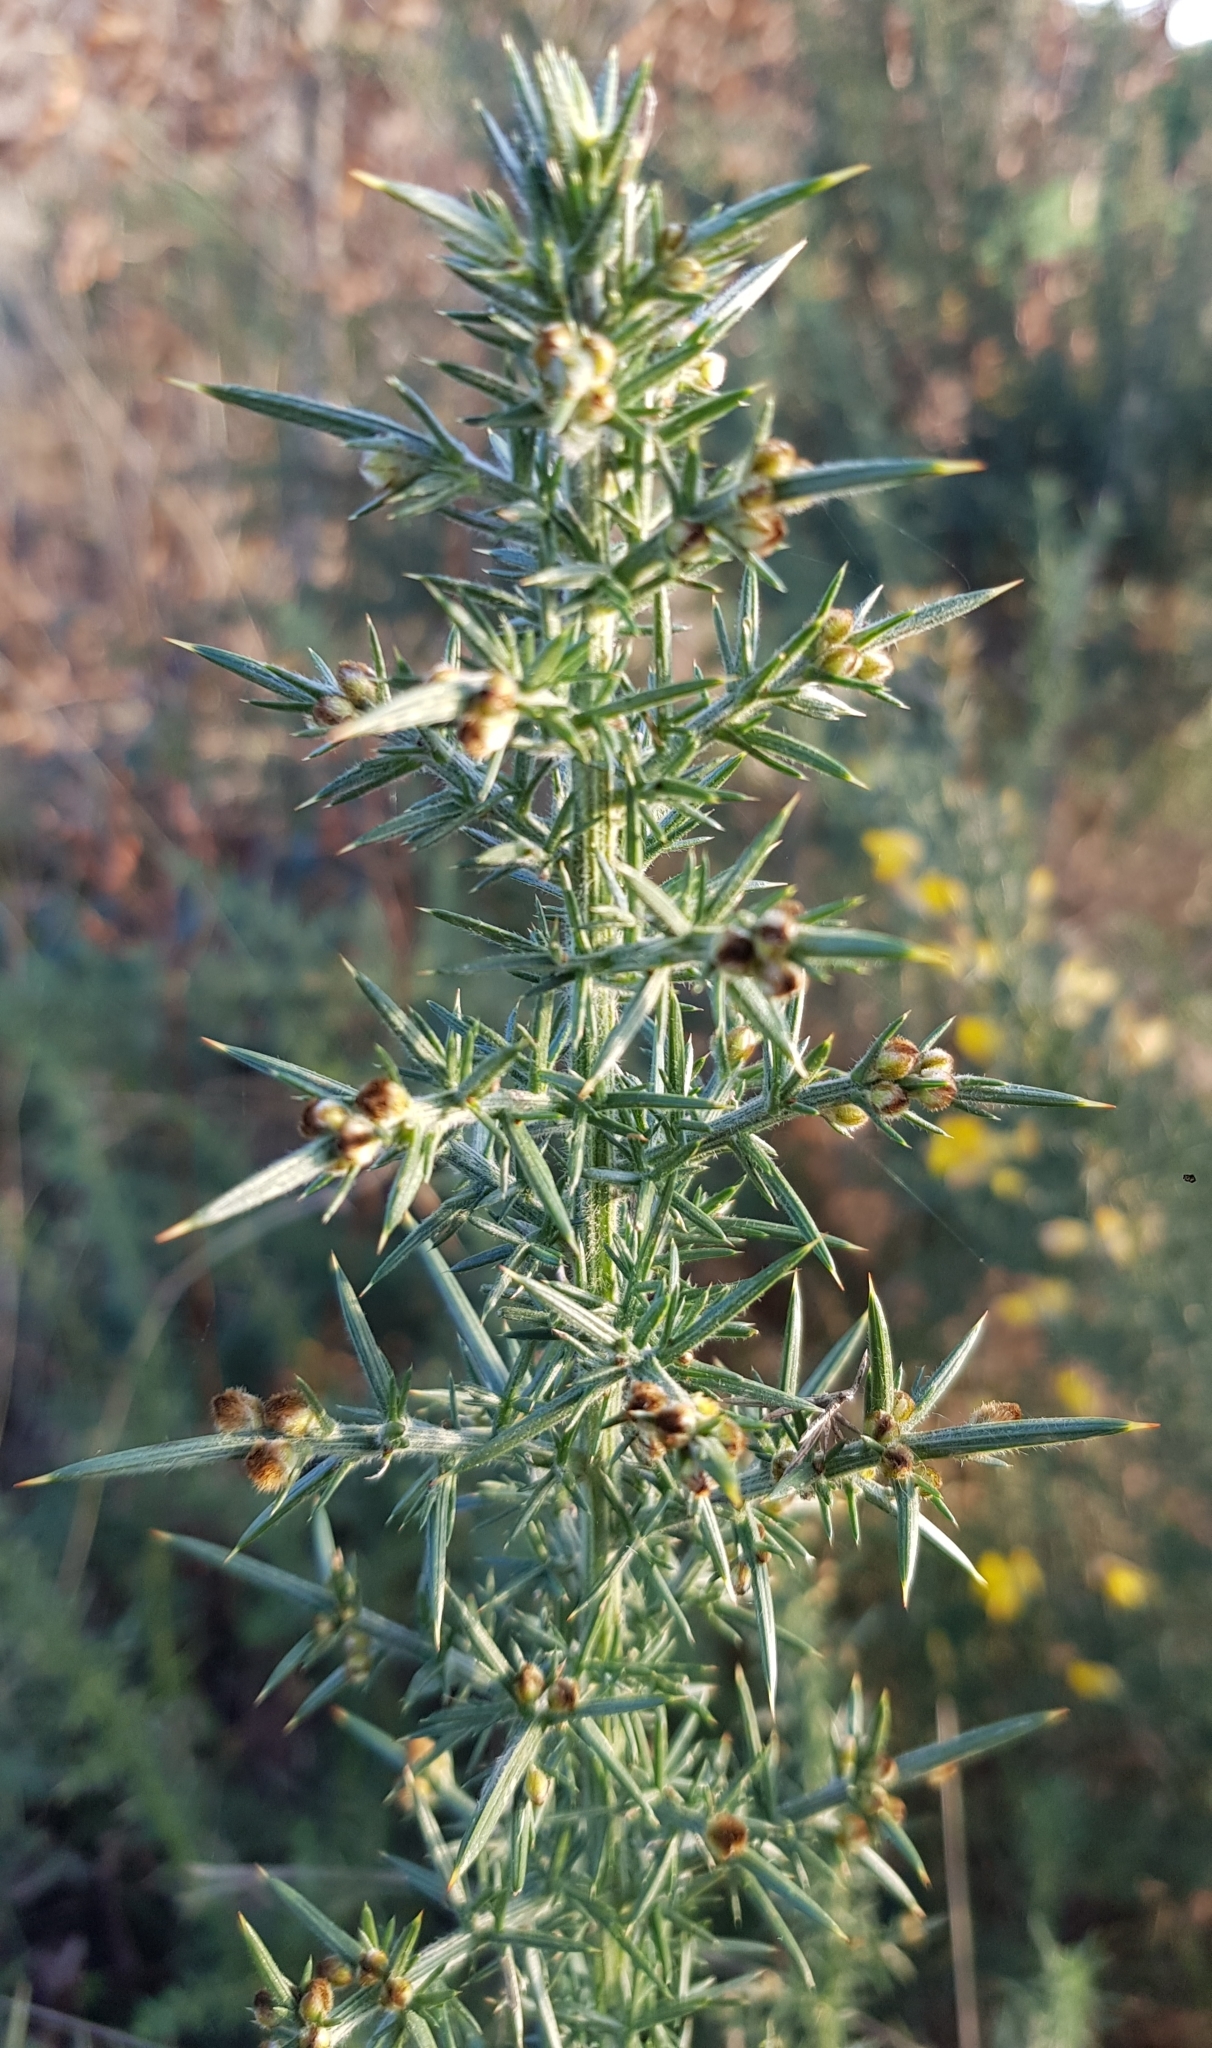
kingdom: Plantae
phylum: Tracheophyta
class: Magnoliopsida
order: Fabales
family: Fabaceae
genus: Ulex
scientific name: Ulex europaeus
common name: Common gorse
